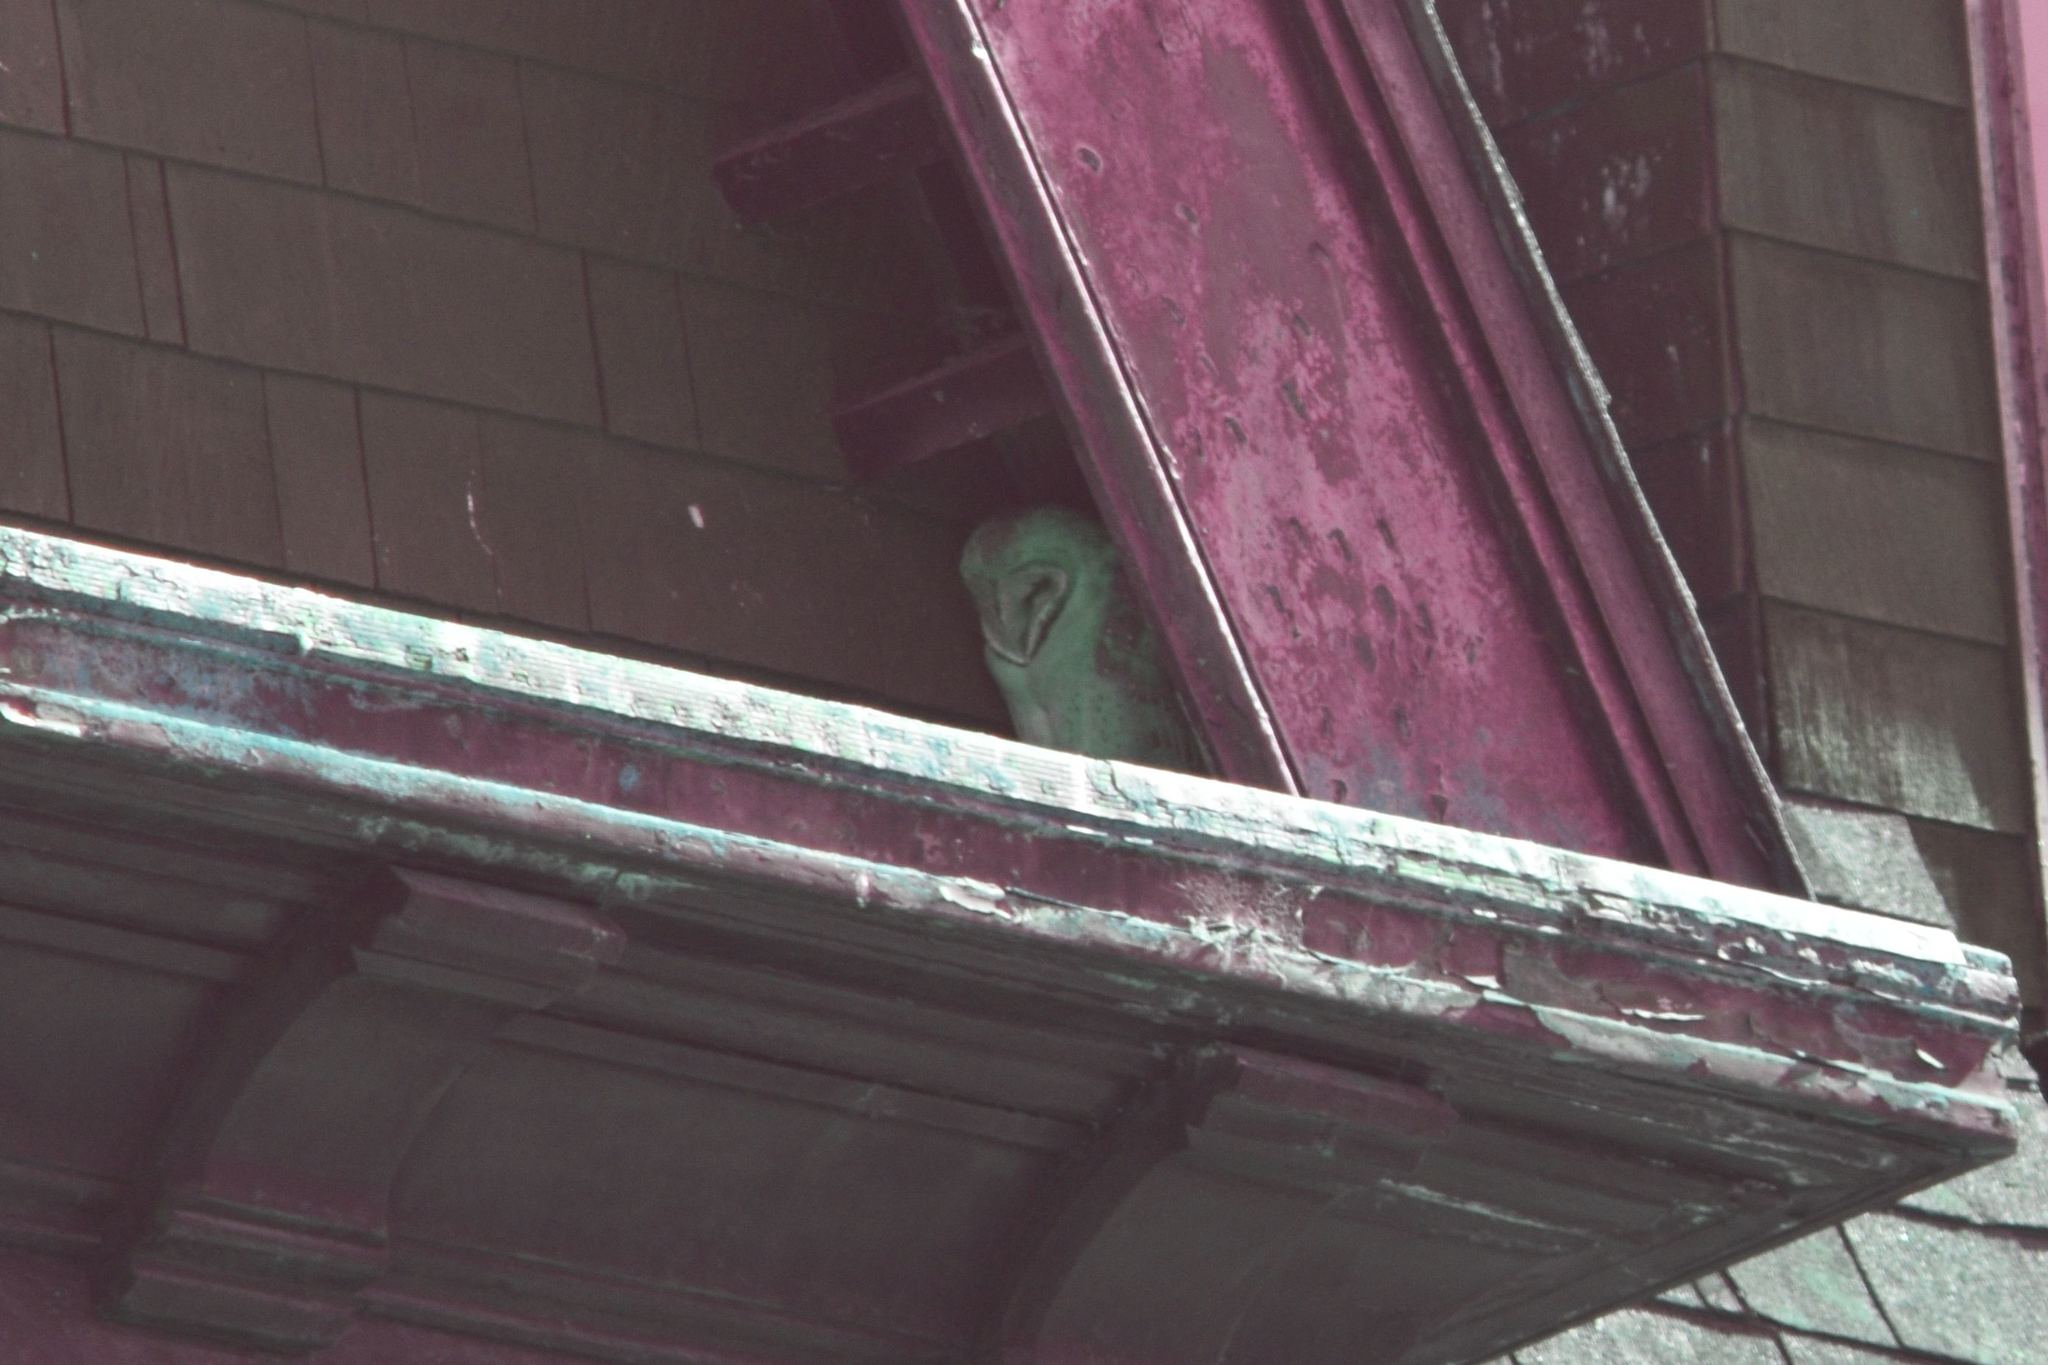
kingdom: Animalia
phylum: Chordata
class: Aves
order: Strigiformes
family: Tytonidae
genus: Tyto
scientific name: Tyto alba
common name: Barn owl
